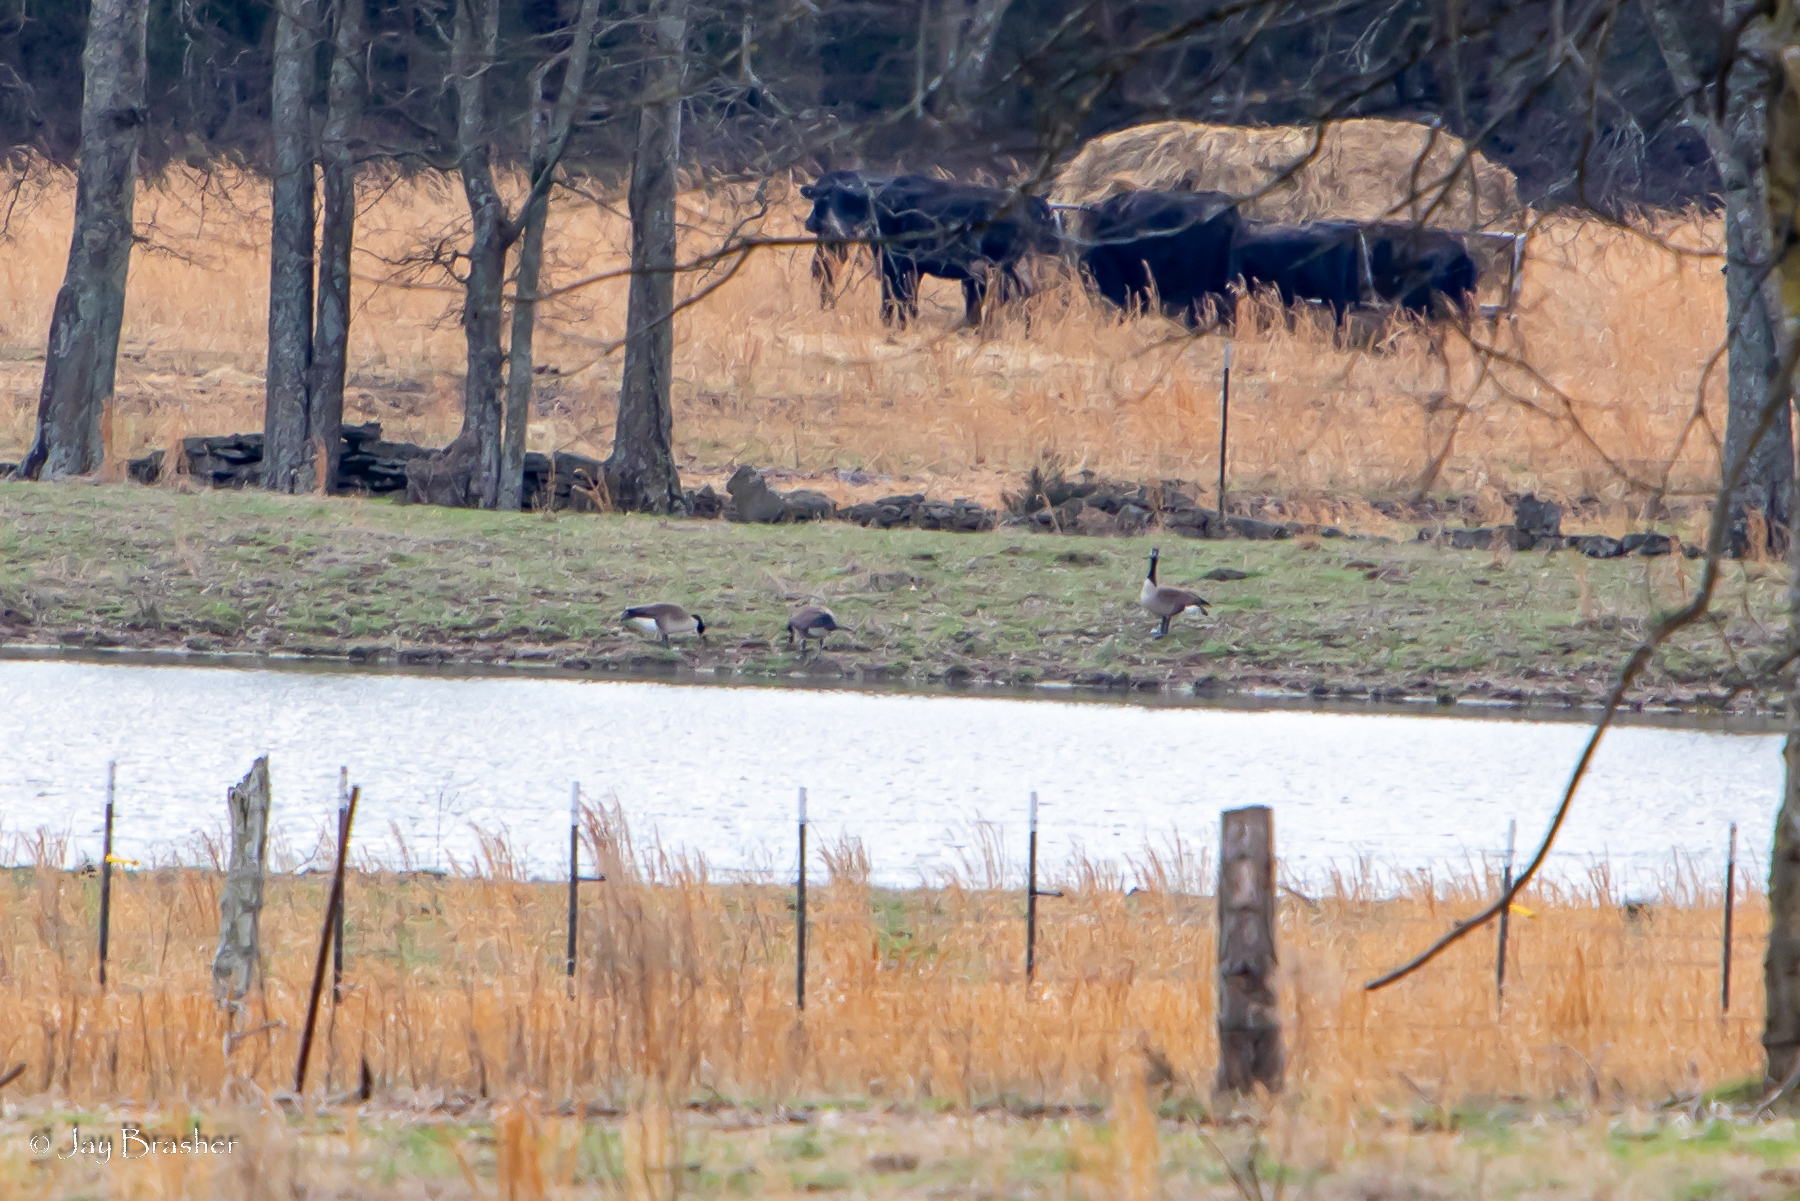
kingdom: Animalia
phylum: Chordata
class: Aves
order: Anseriformes
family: Anatidae
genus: Branta
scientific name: Branta canadensis
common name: Canada goose
